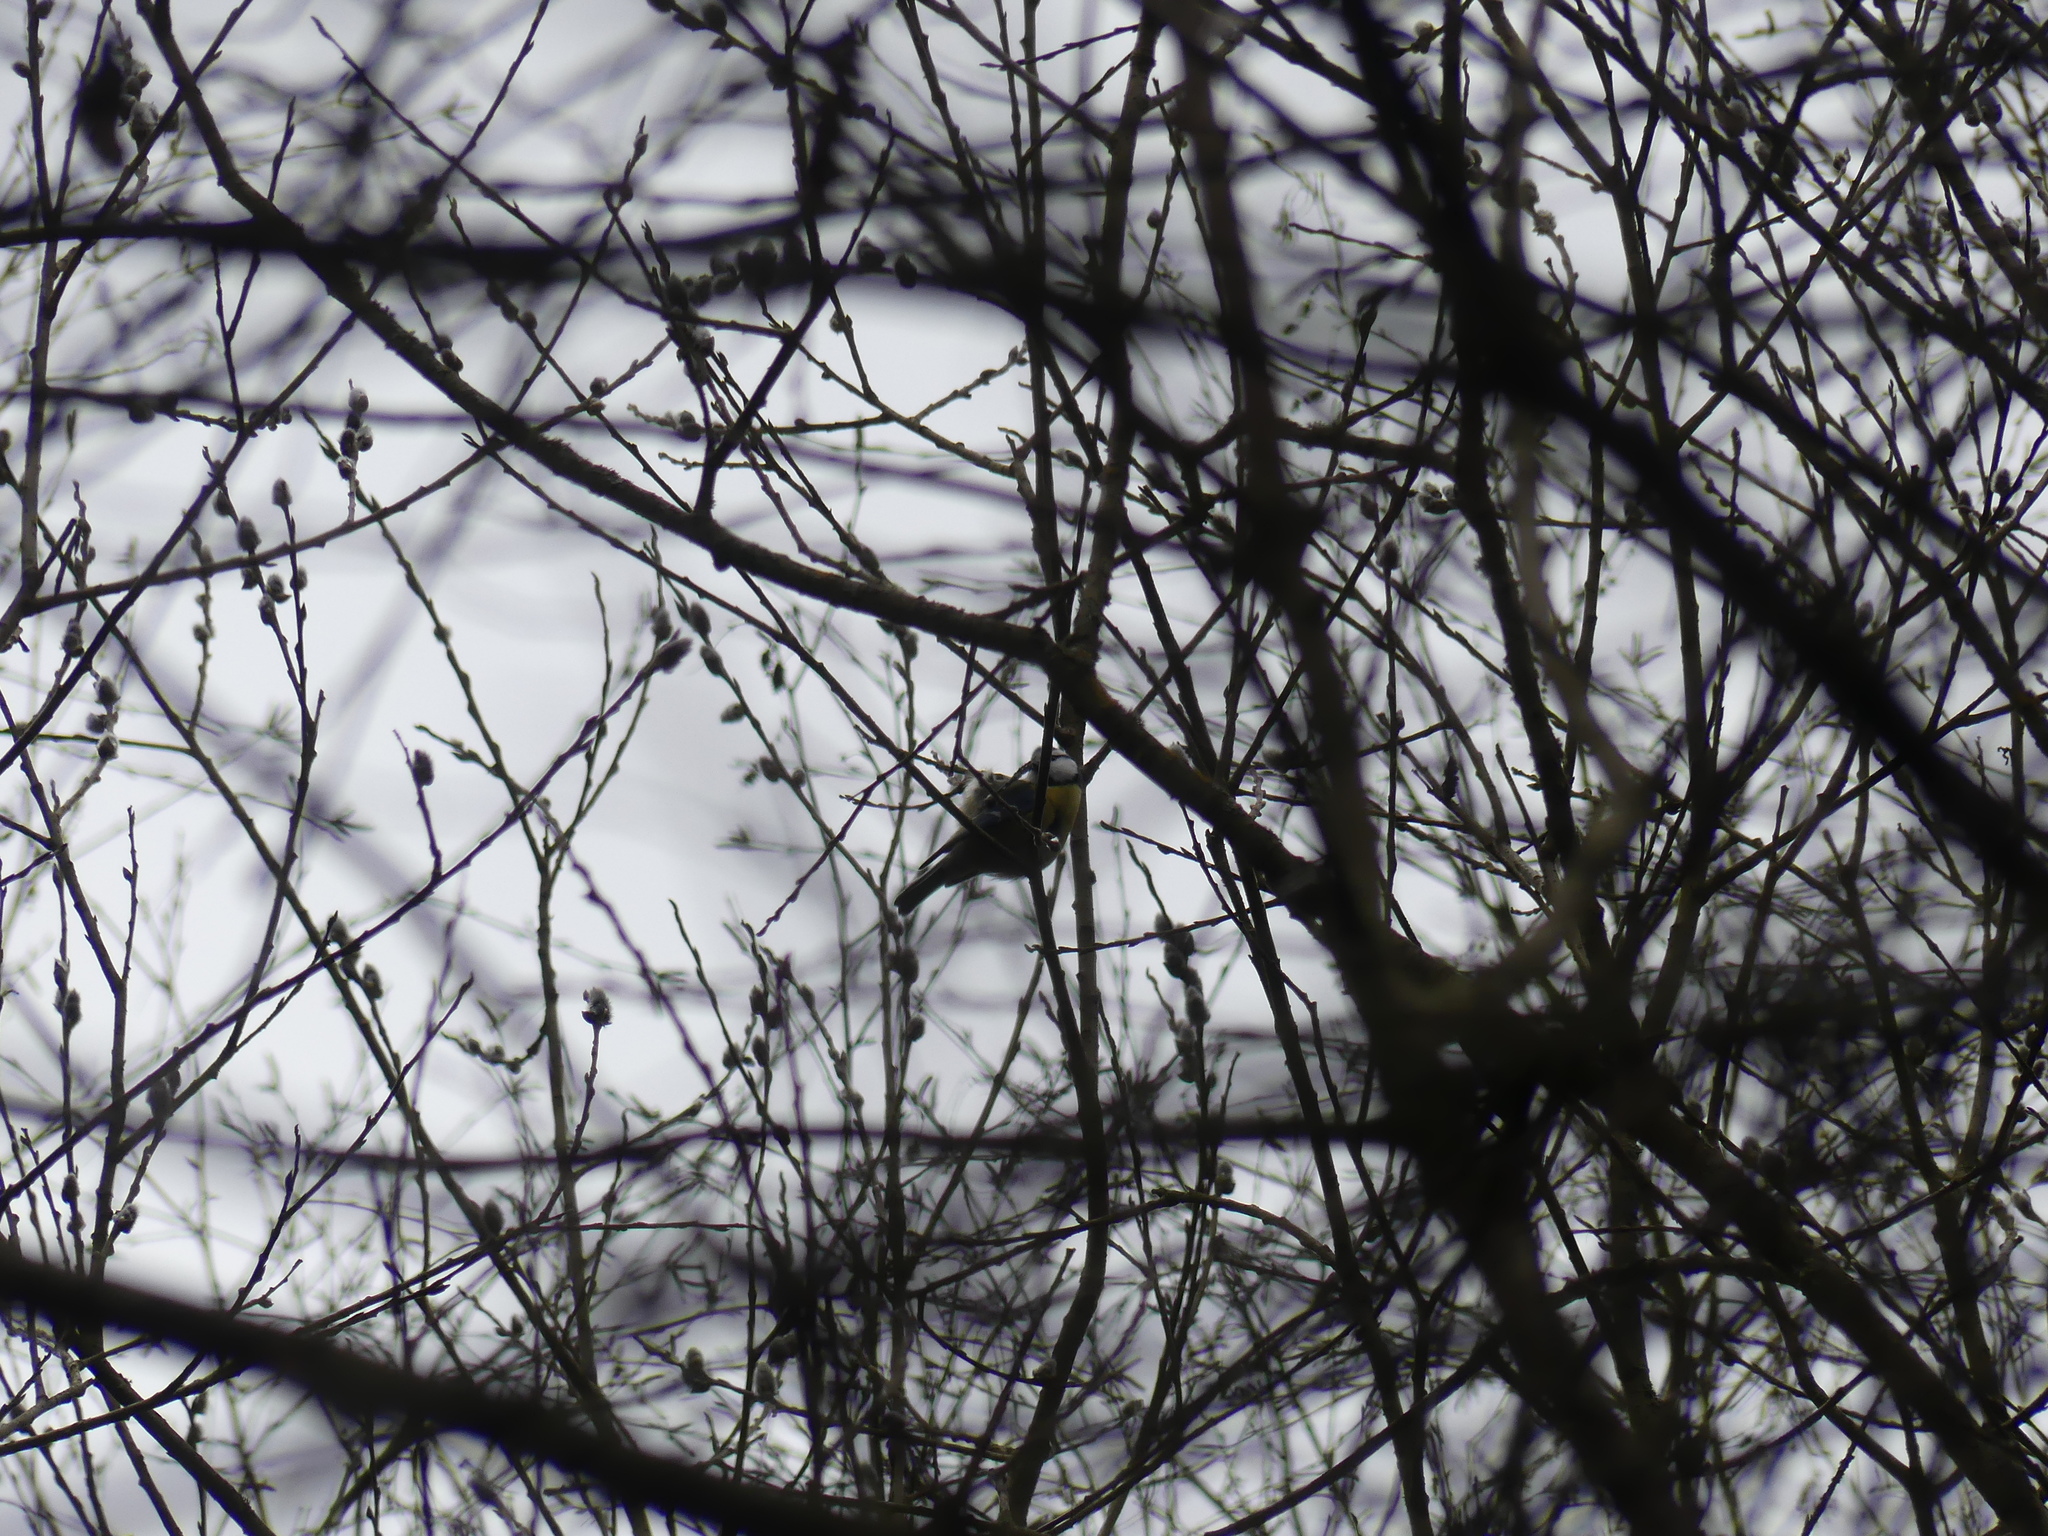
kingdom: Animalia
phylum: Chordata
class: Aves
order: Passeriformes
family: Paridae
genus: Cyanistes
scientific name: Cyanistes caeruleus
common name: Eurasian blue tit
